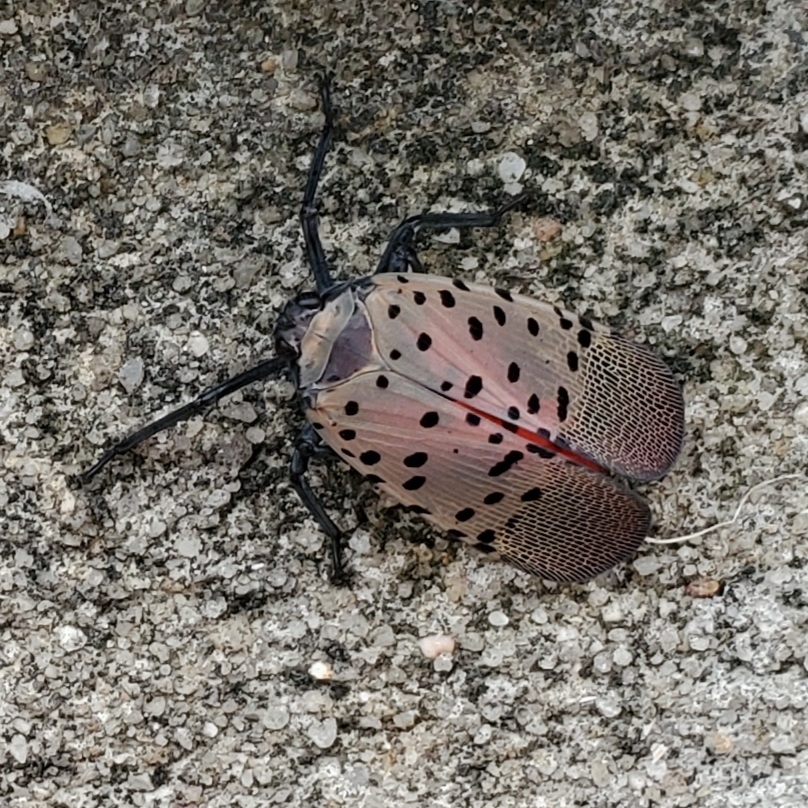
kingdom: Animalia
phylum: Arthropoda
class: Insecta
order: Hemiptera
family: Fulgoridae
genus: Lycorma
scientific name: Lycorma delicatula
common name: Spotted lanternfly
